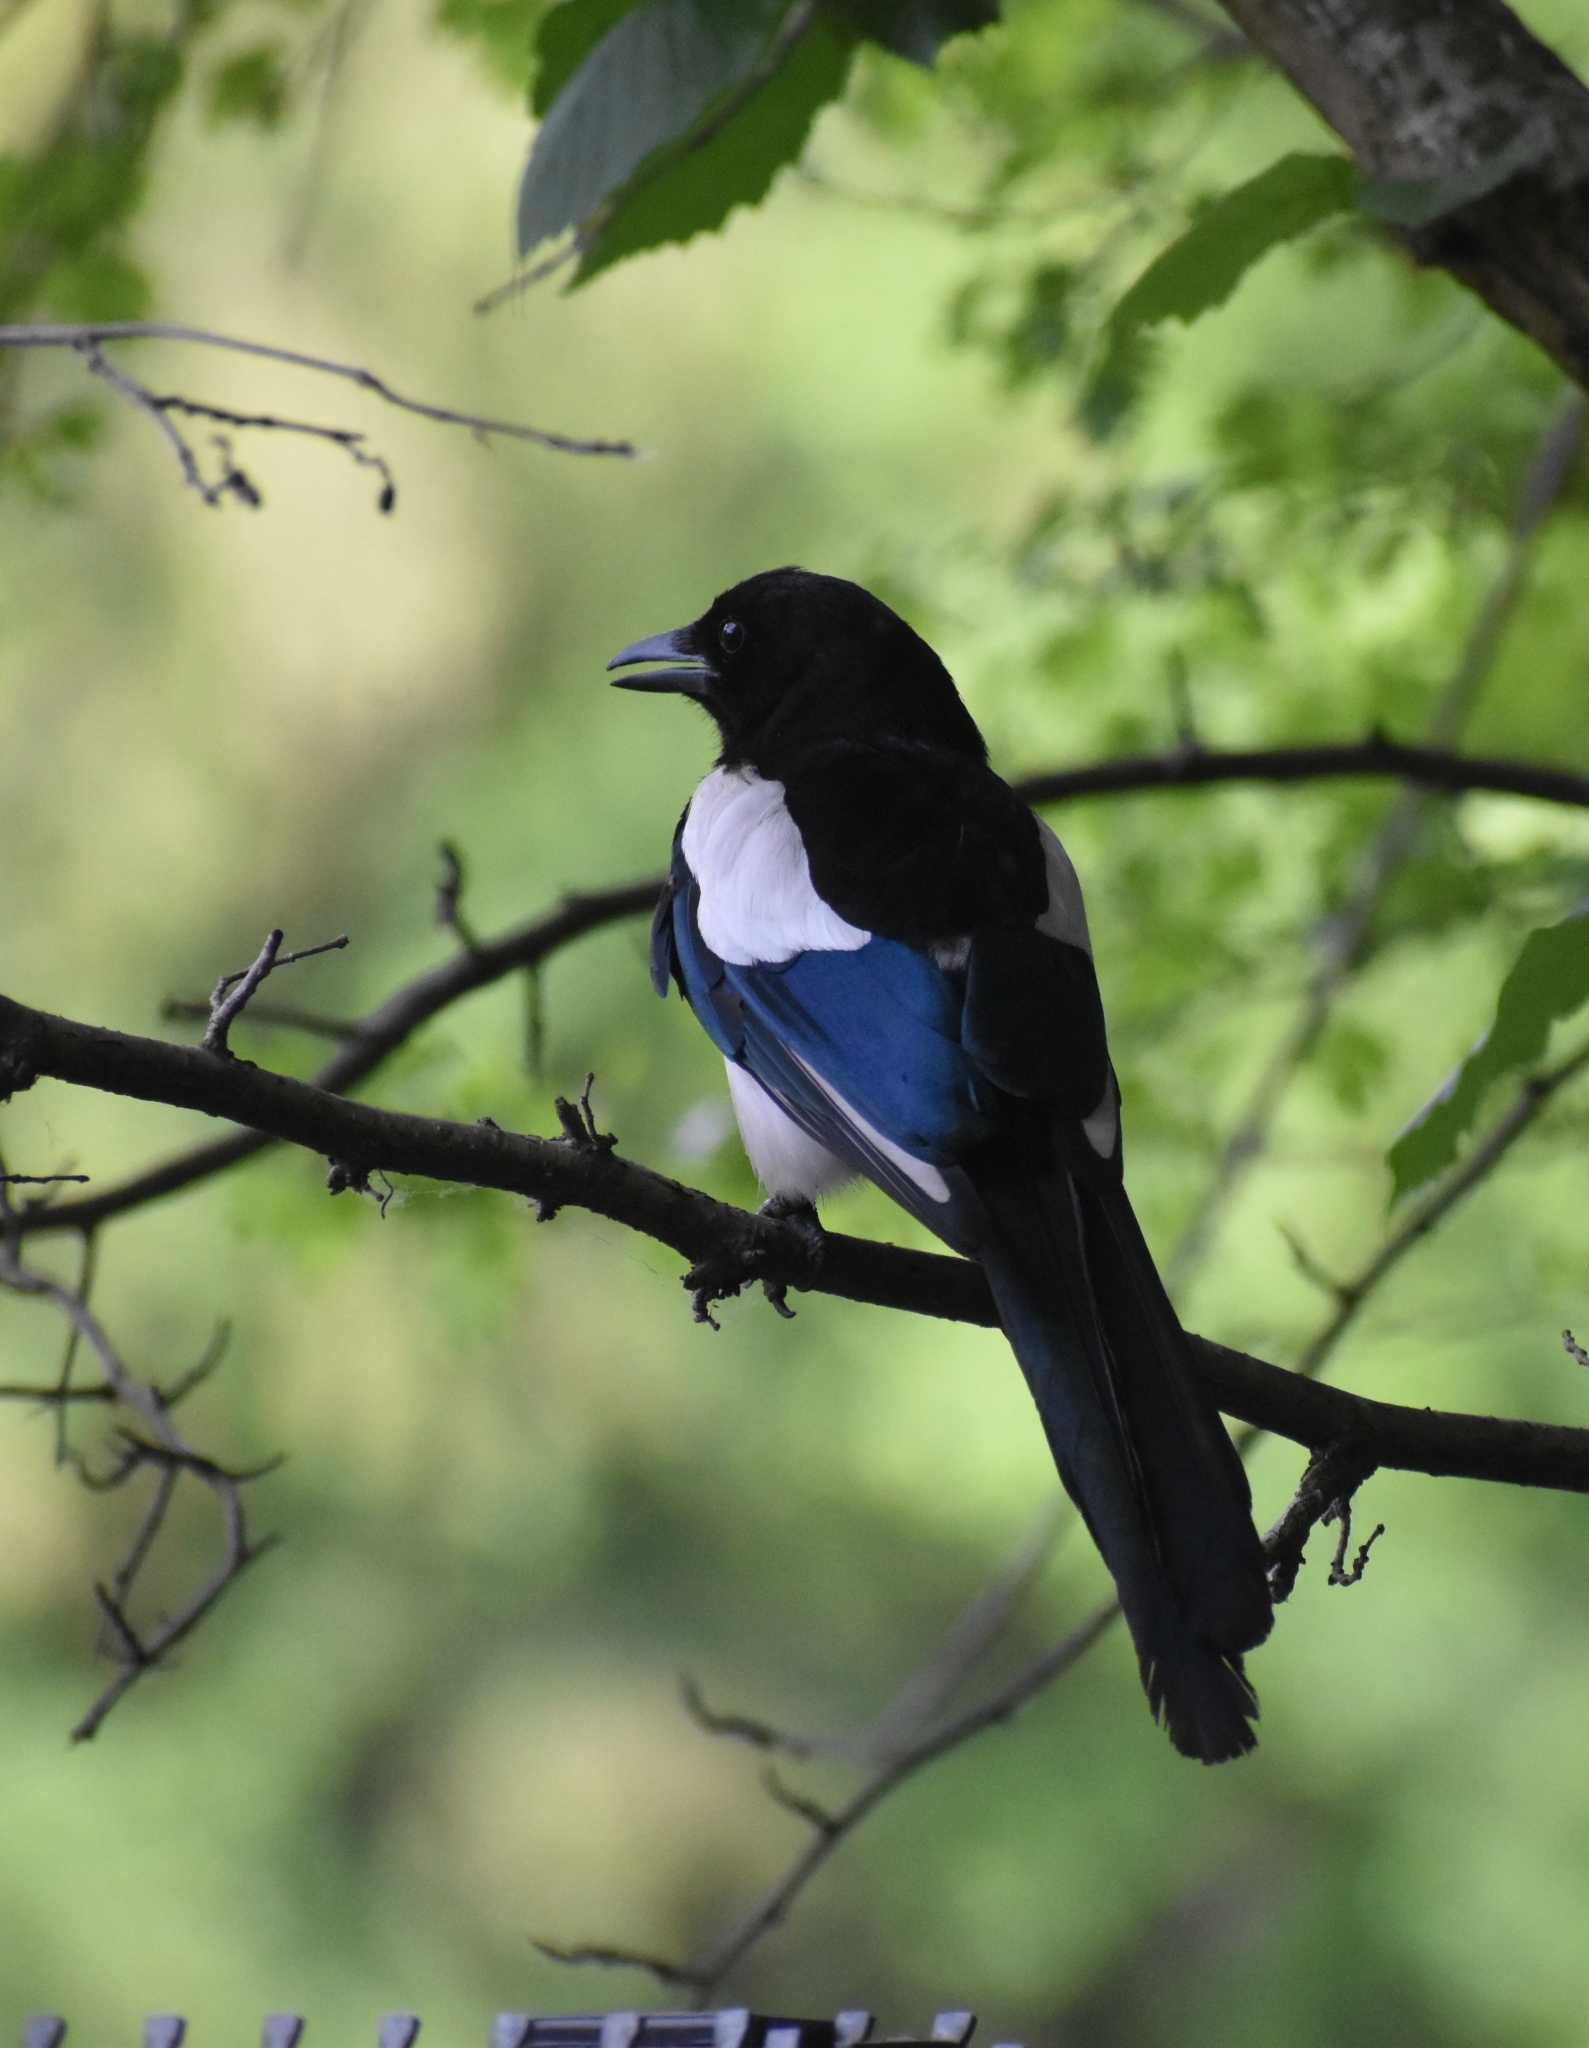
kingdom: Animalia
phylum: Chordata
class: Aves
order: Passeriformes
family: Corvidae
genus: Pica
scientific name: Pica pica
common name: Eurasian magpie
